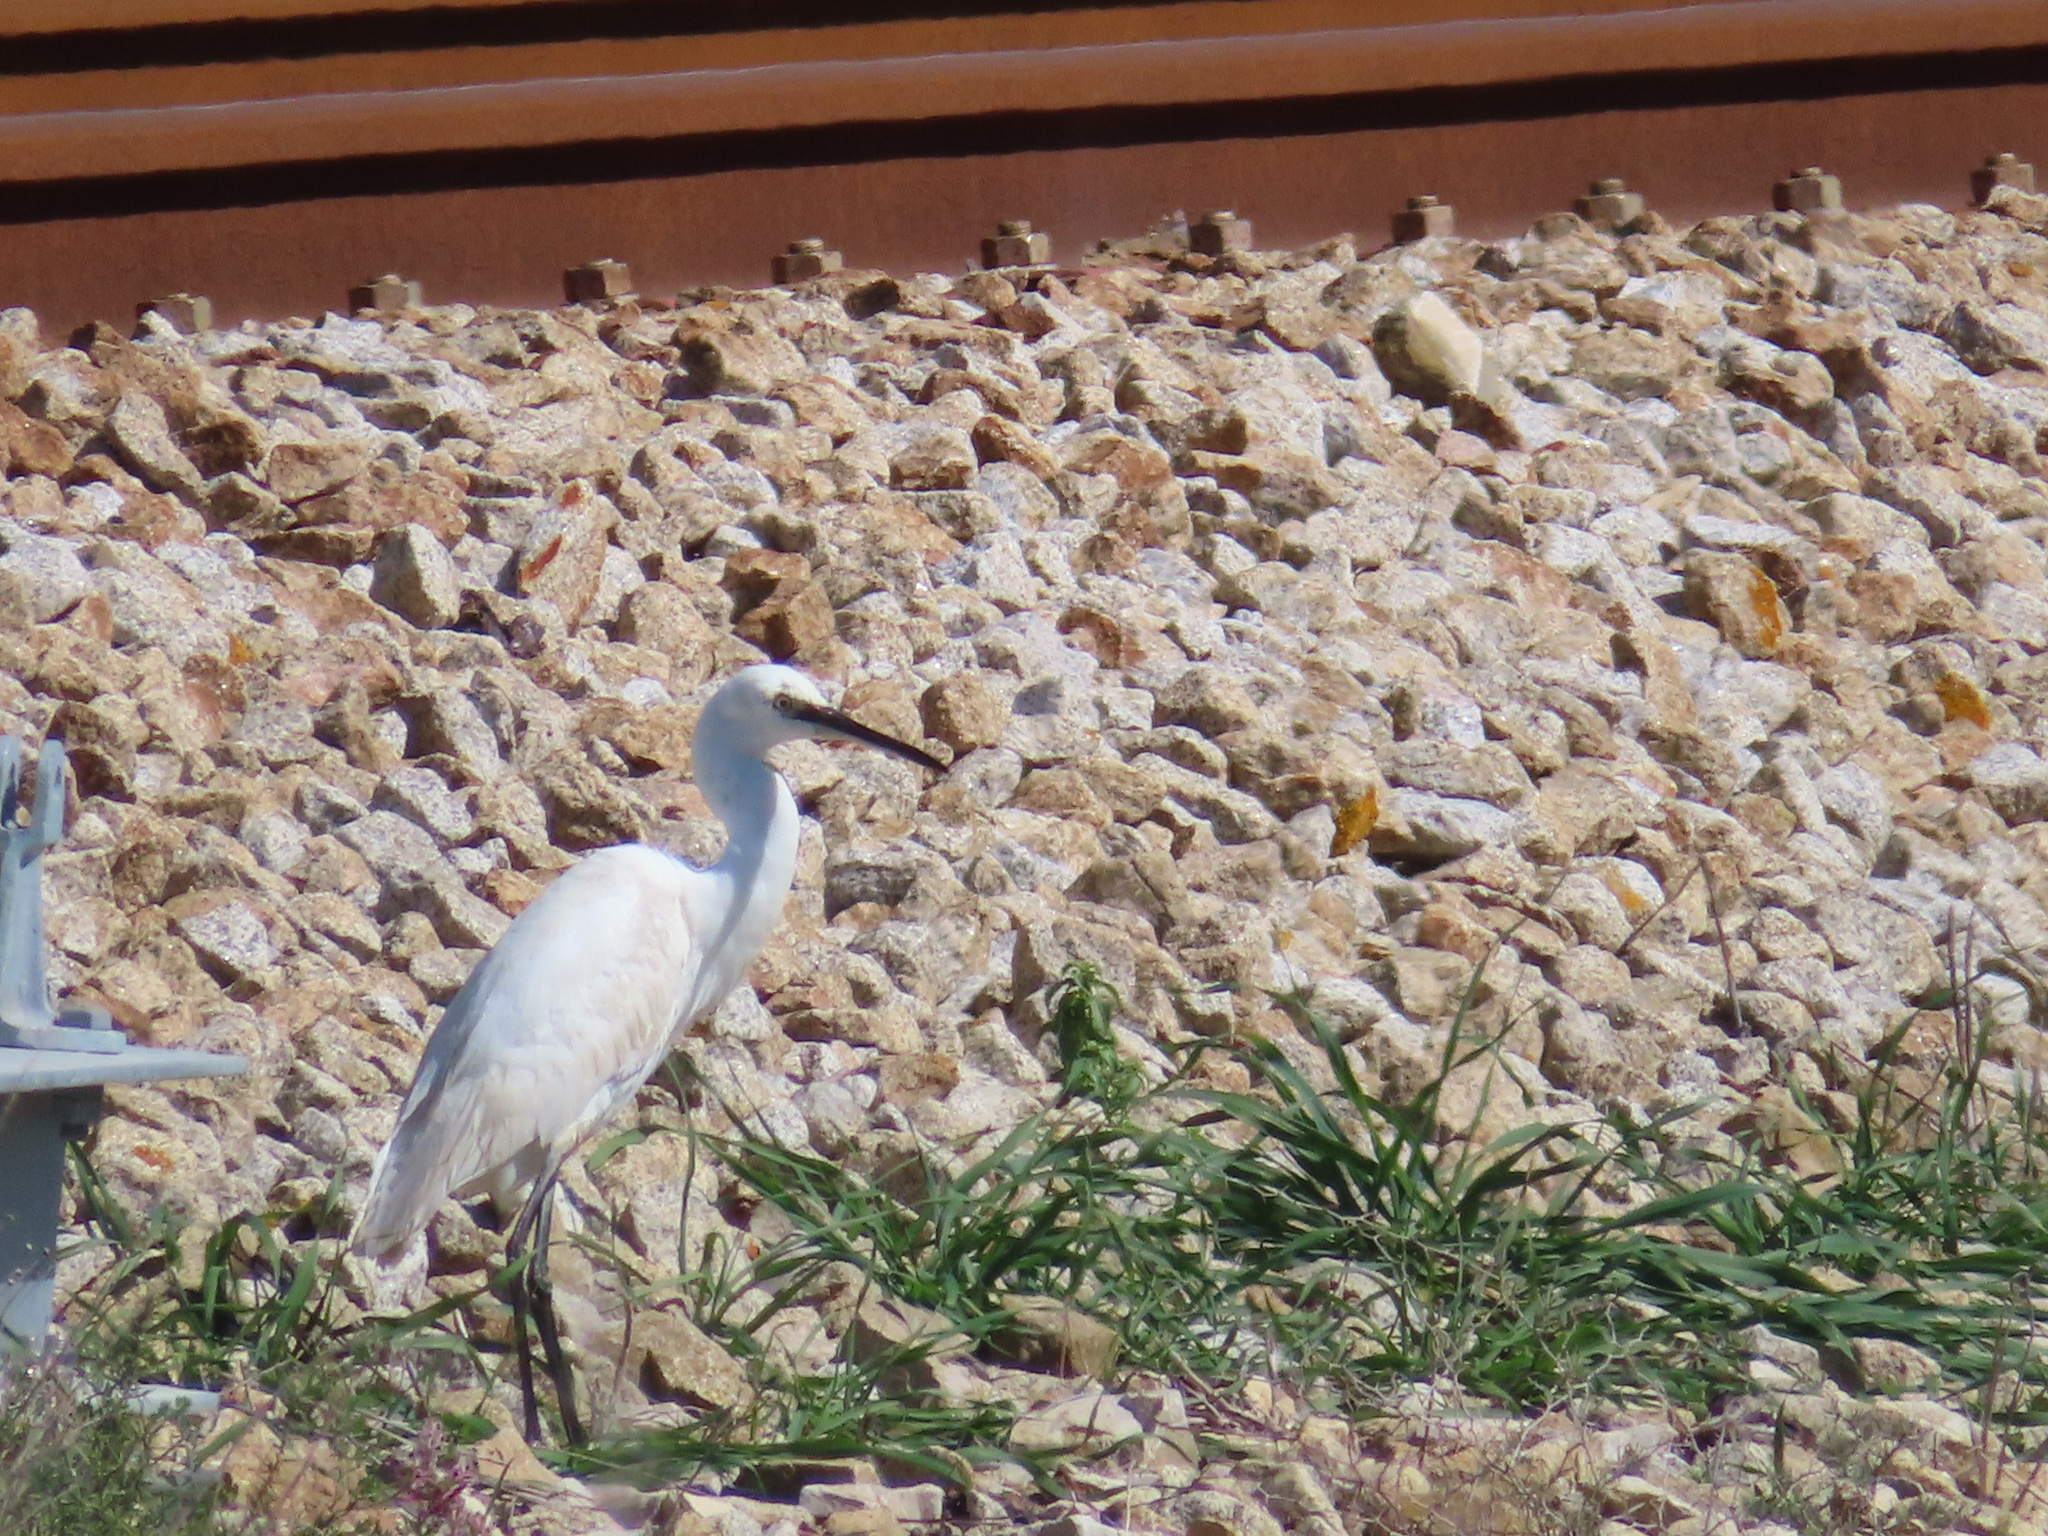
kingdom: Animalia
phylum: Chordata
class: Aves
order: Pelecaniformes
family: Ardeidae
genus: Egretta
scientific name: Egretta garzetta
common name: Little egret
